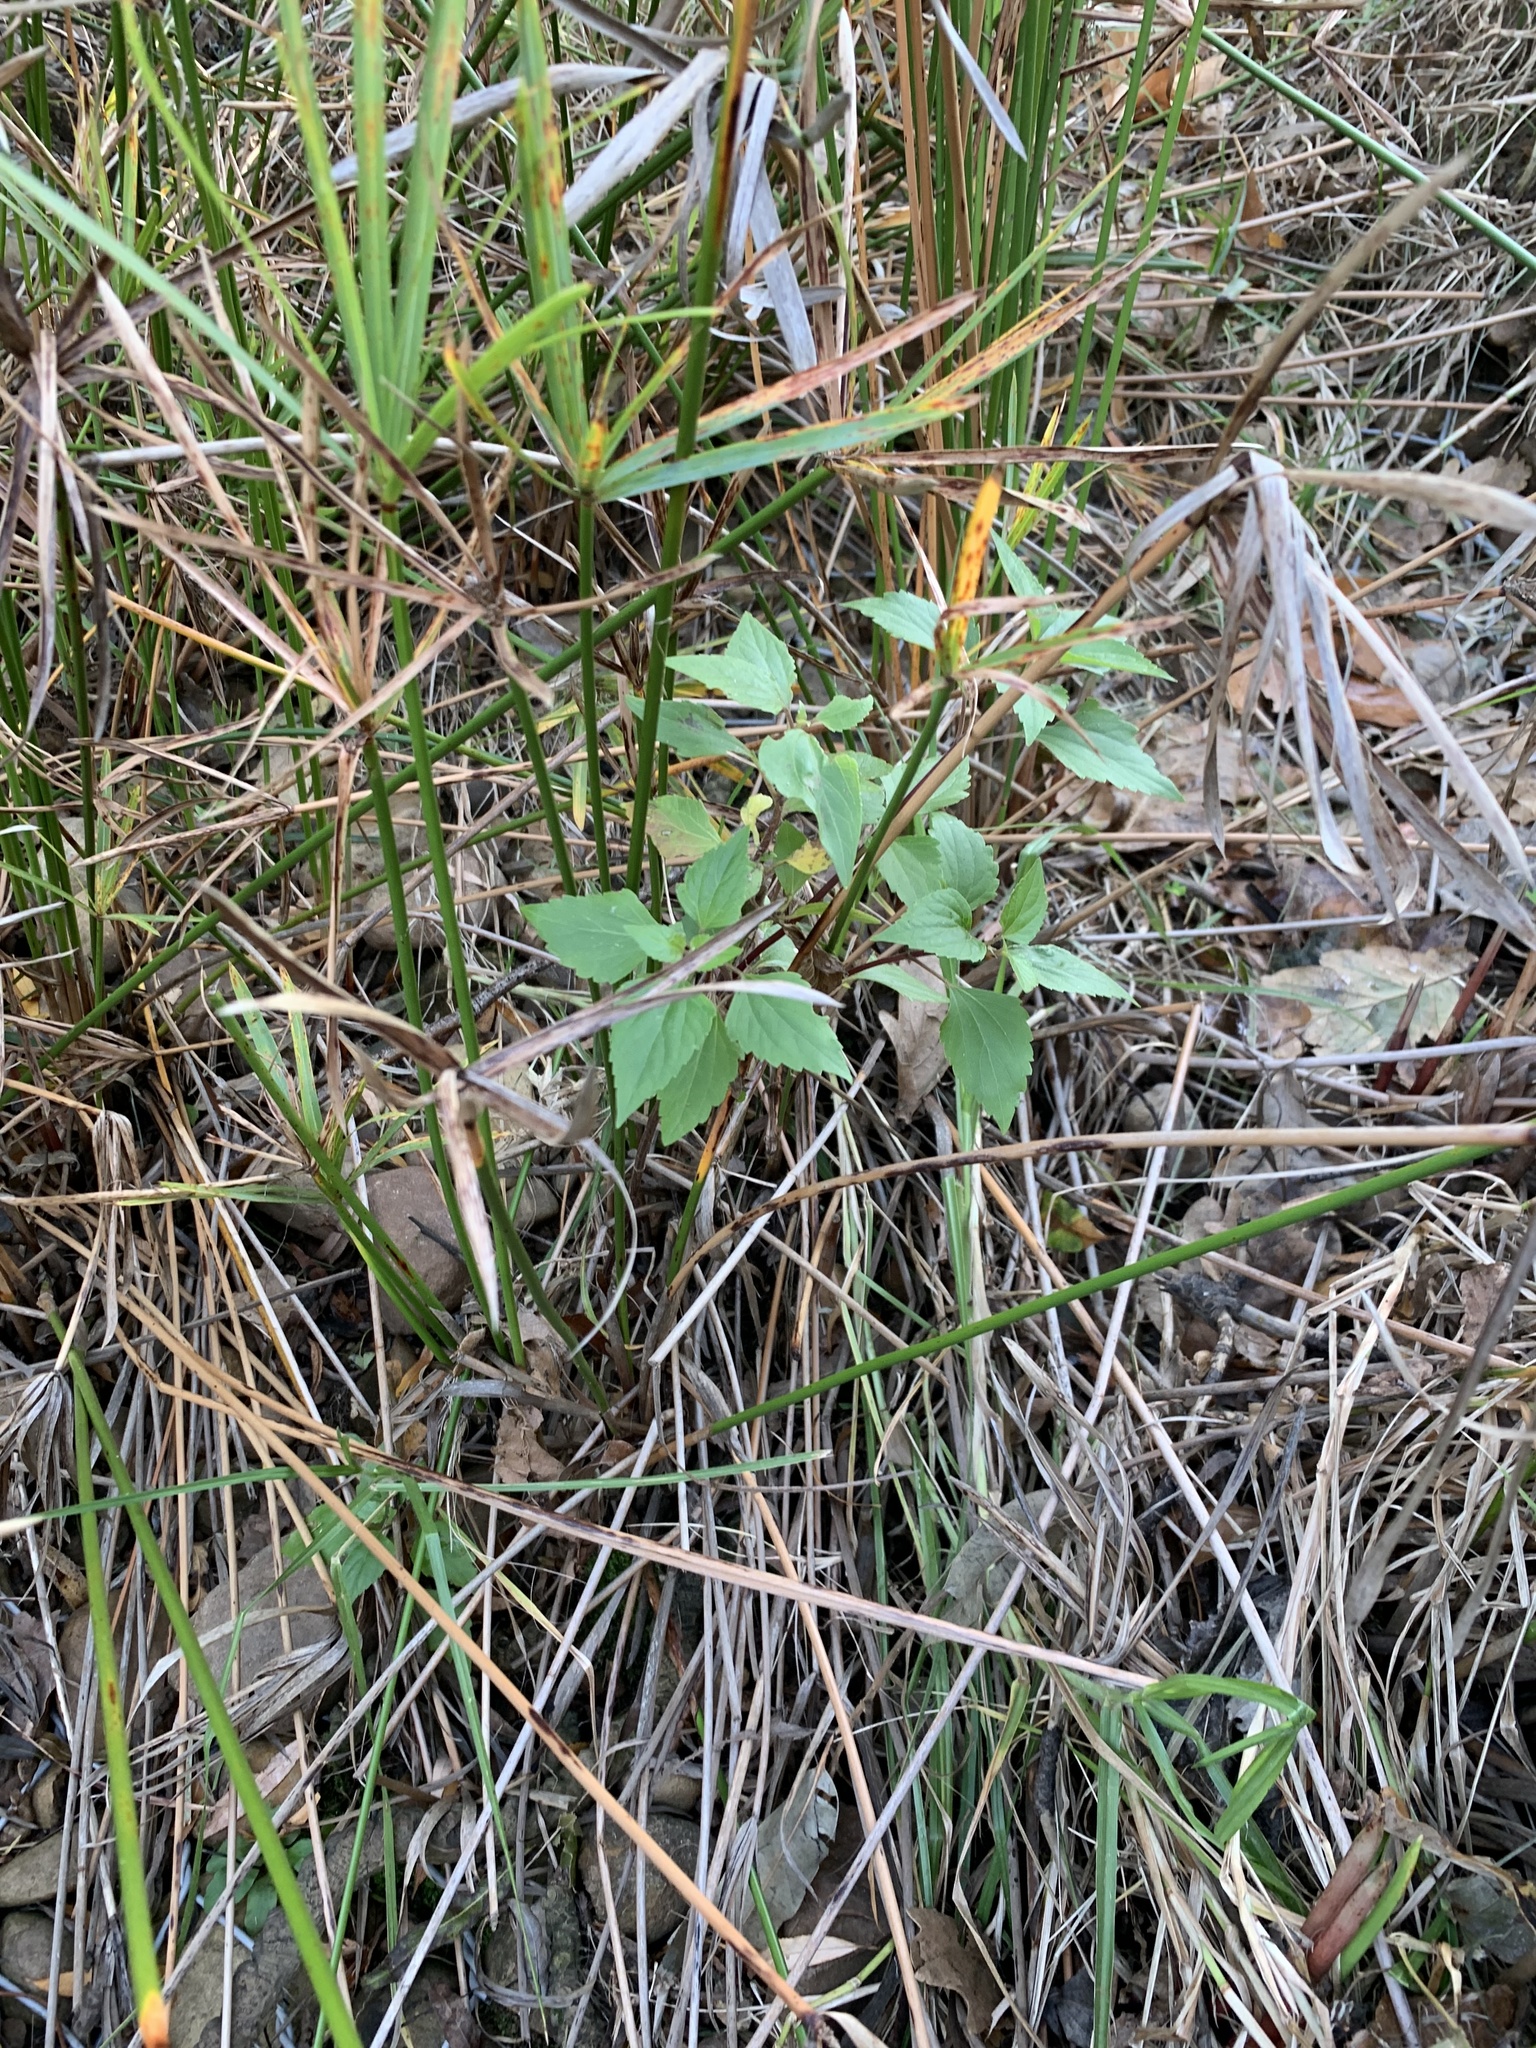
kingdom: Plantae
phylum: Tracheophyta
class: Magnoliopsida
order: Asterales
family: Asteraceae
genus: Ageratina
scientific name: Ageratina adenophora
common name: Sticky snakeroot
